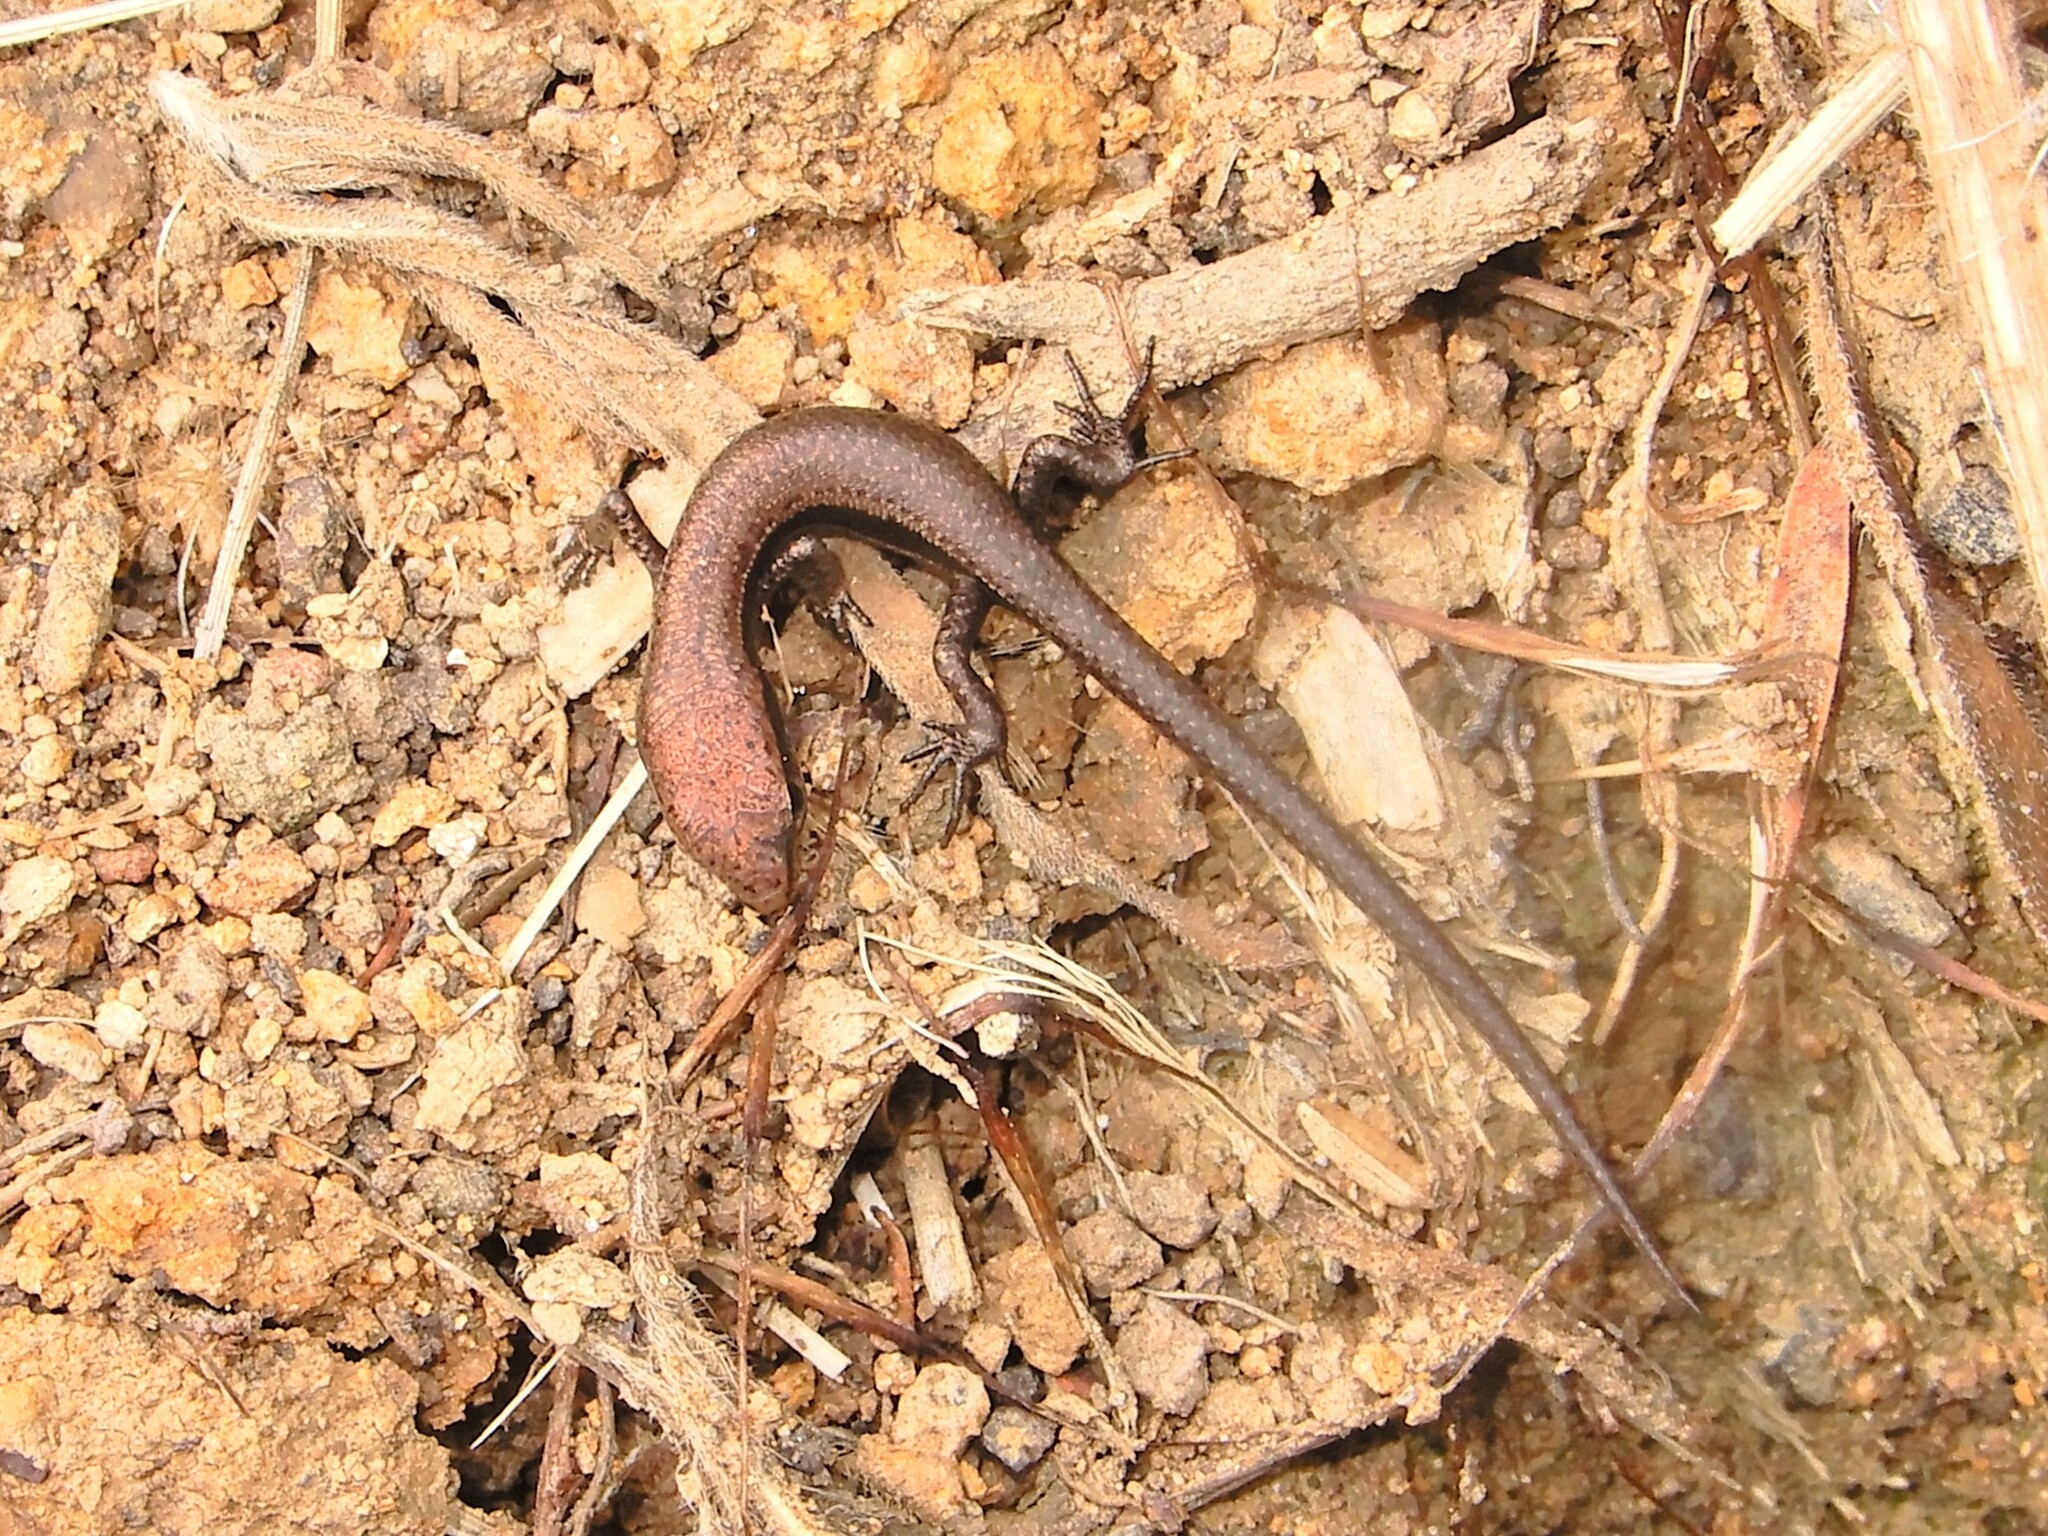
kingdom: Animalia
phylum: Chordata
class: Squamata
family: Scincidae
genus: Lampropholis
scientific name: Lampropholis delicata
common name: Plague skink
